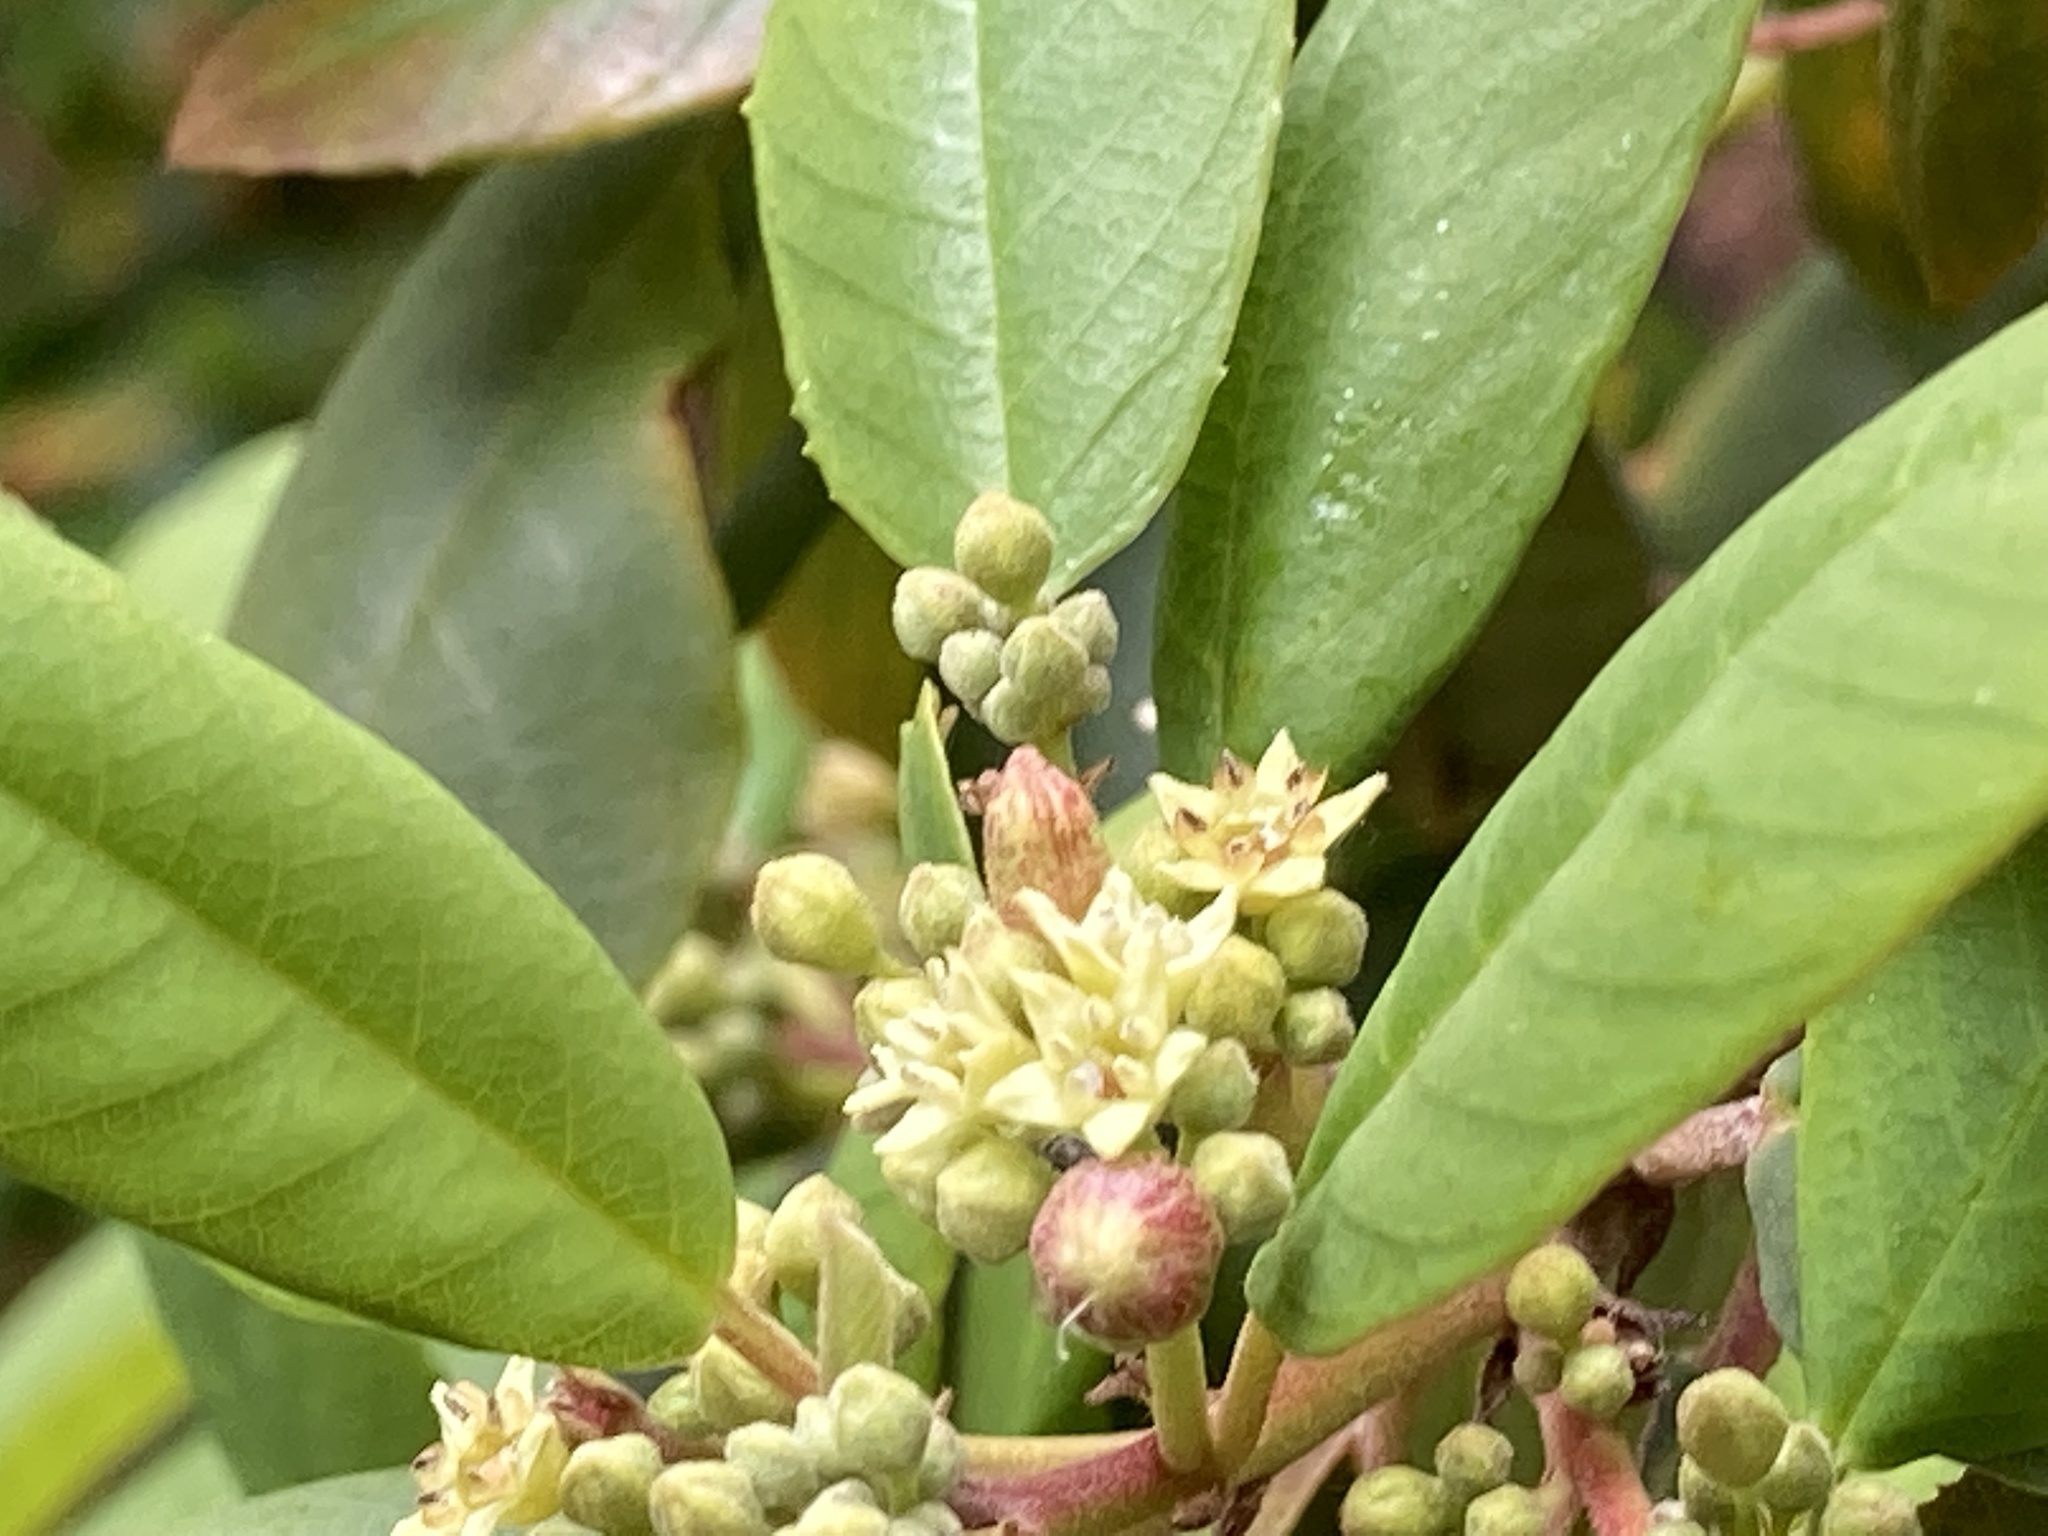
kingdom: Plantae
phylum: Tracheophyta
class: Magnoliopsida
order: Rosales
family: Rhamnaceae
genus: Frangula
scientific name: Frangula californica
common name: California buckthorn
